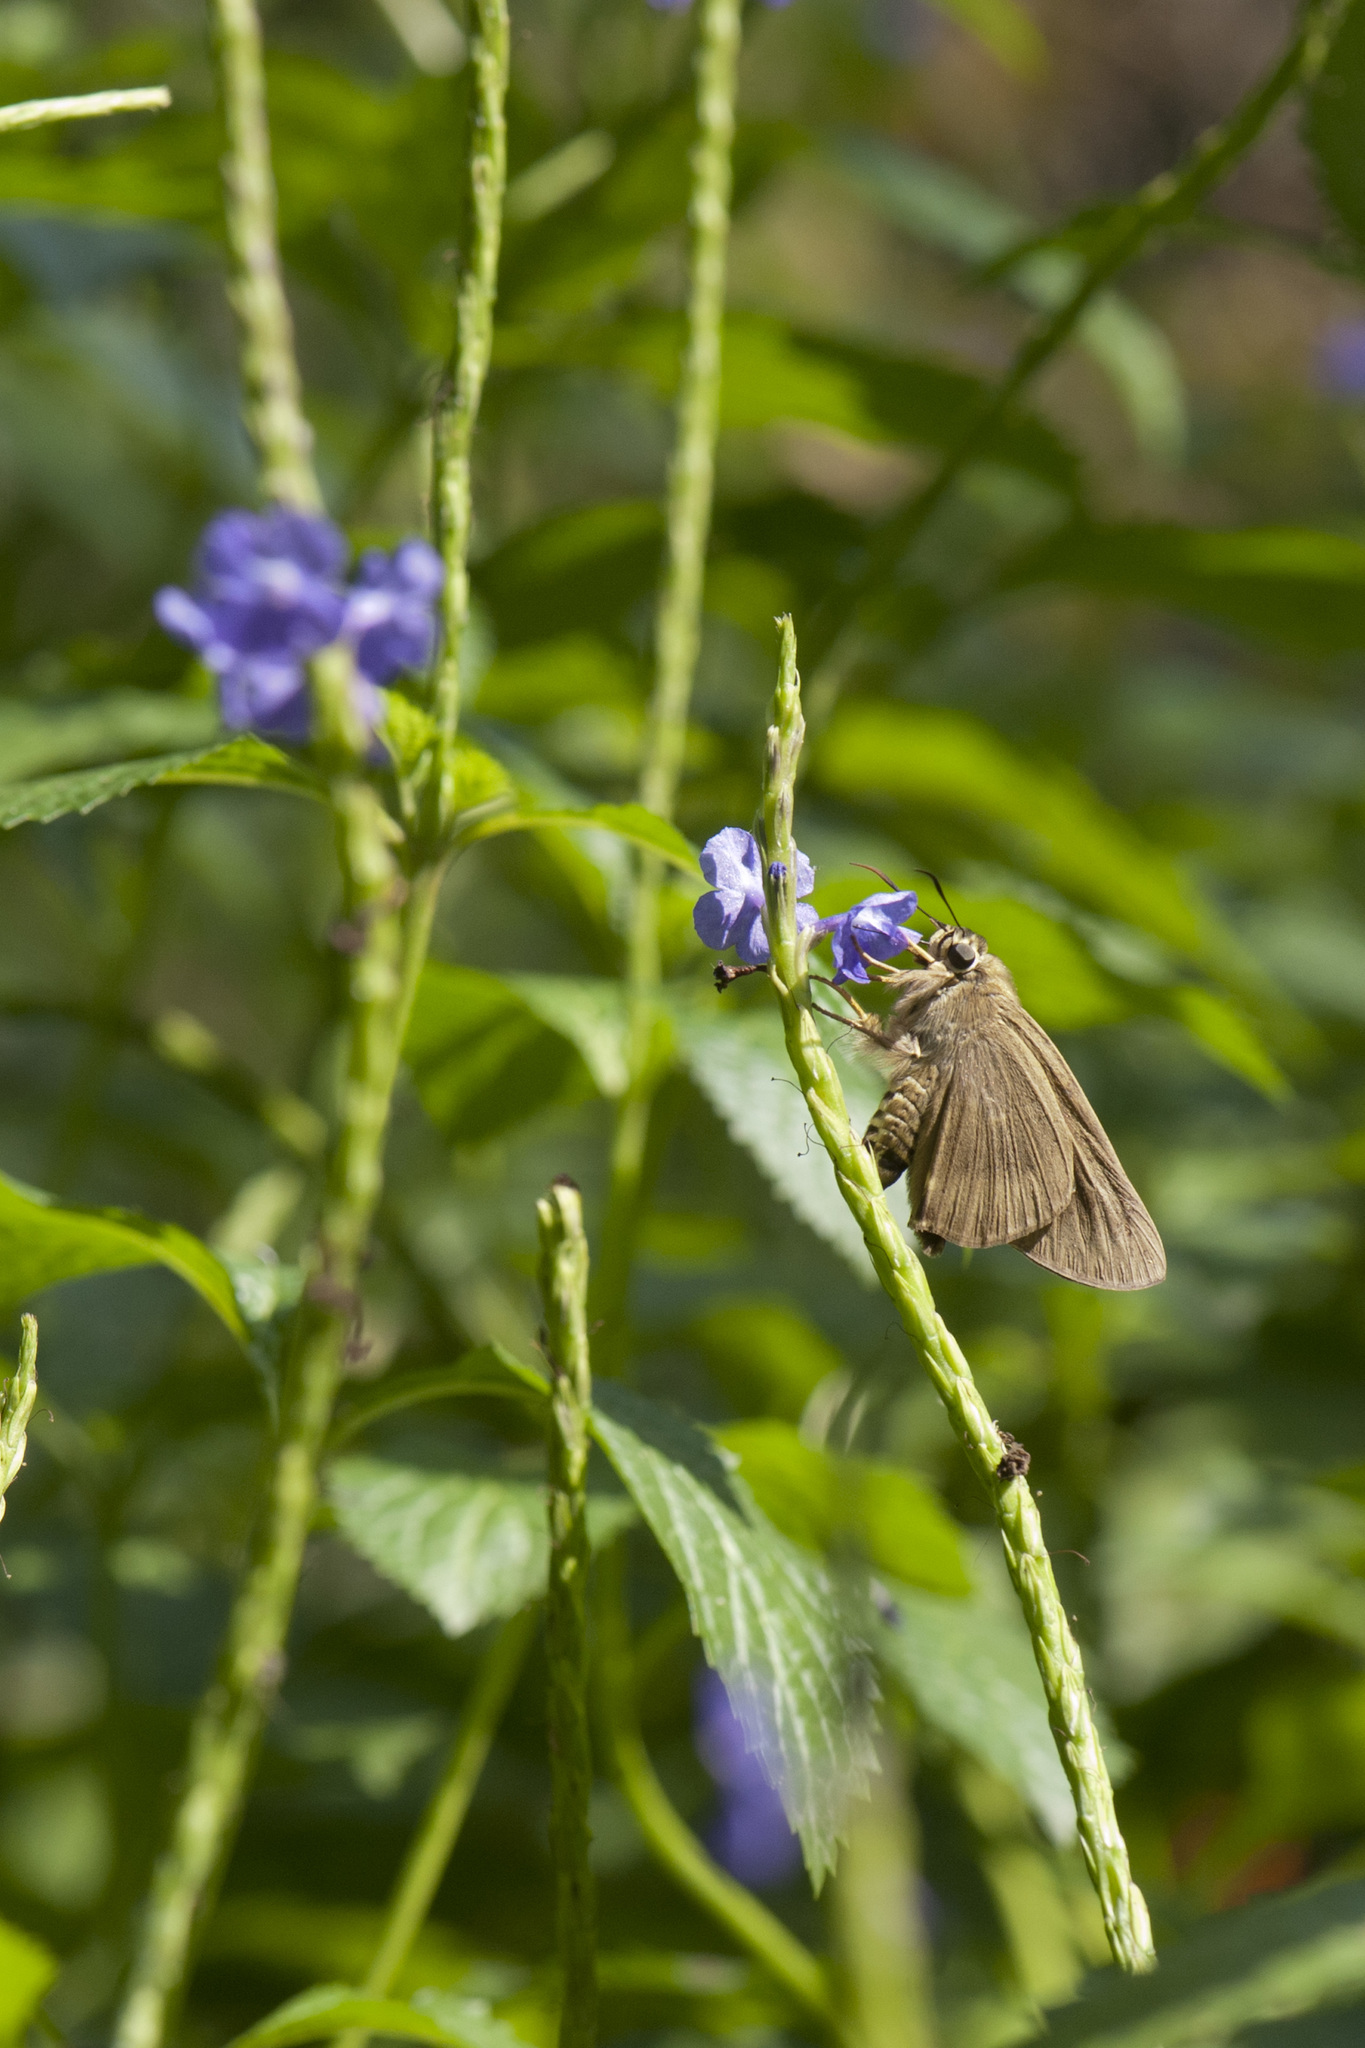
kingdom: Animalia
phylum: Arthropoda
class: Insecta
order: Lepidoptera
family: Hesperiidae
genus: Badamia
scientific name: Badamia exclamationis
